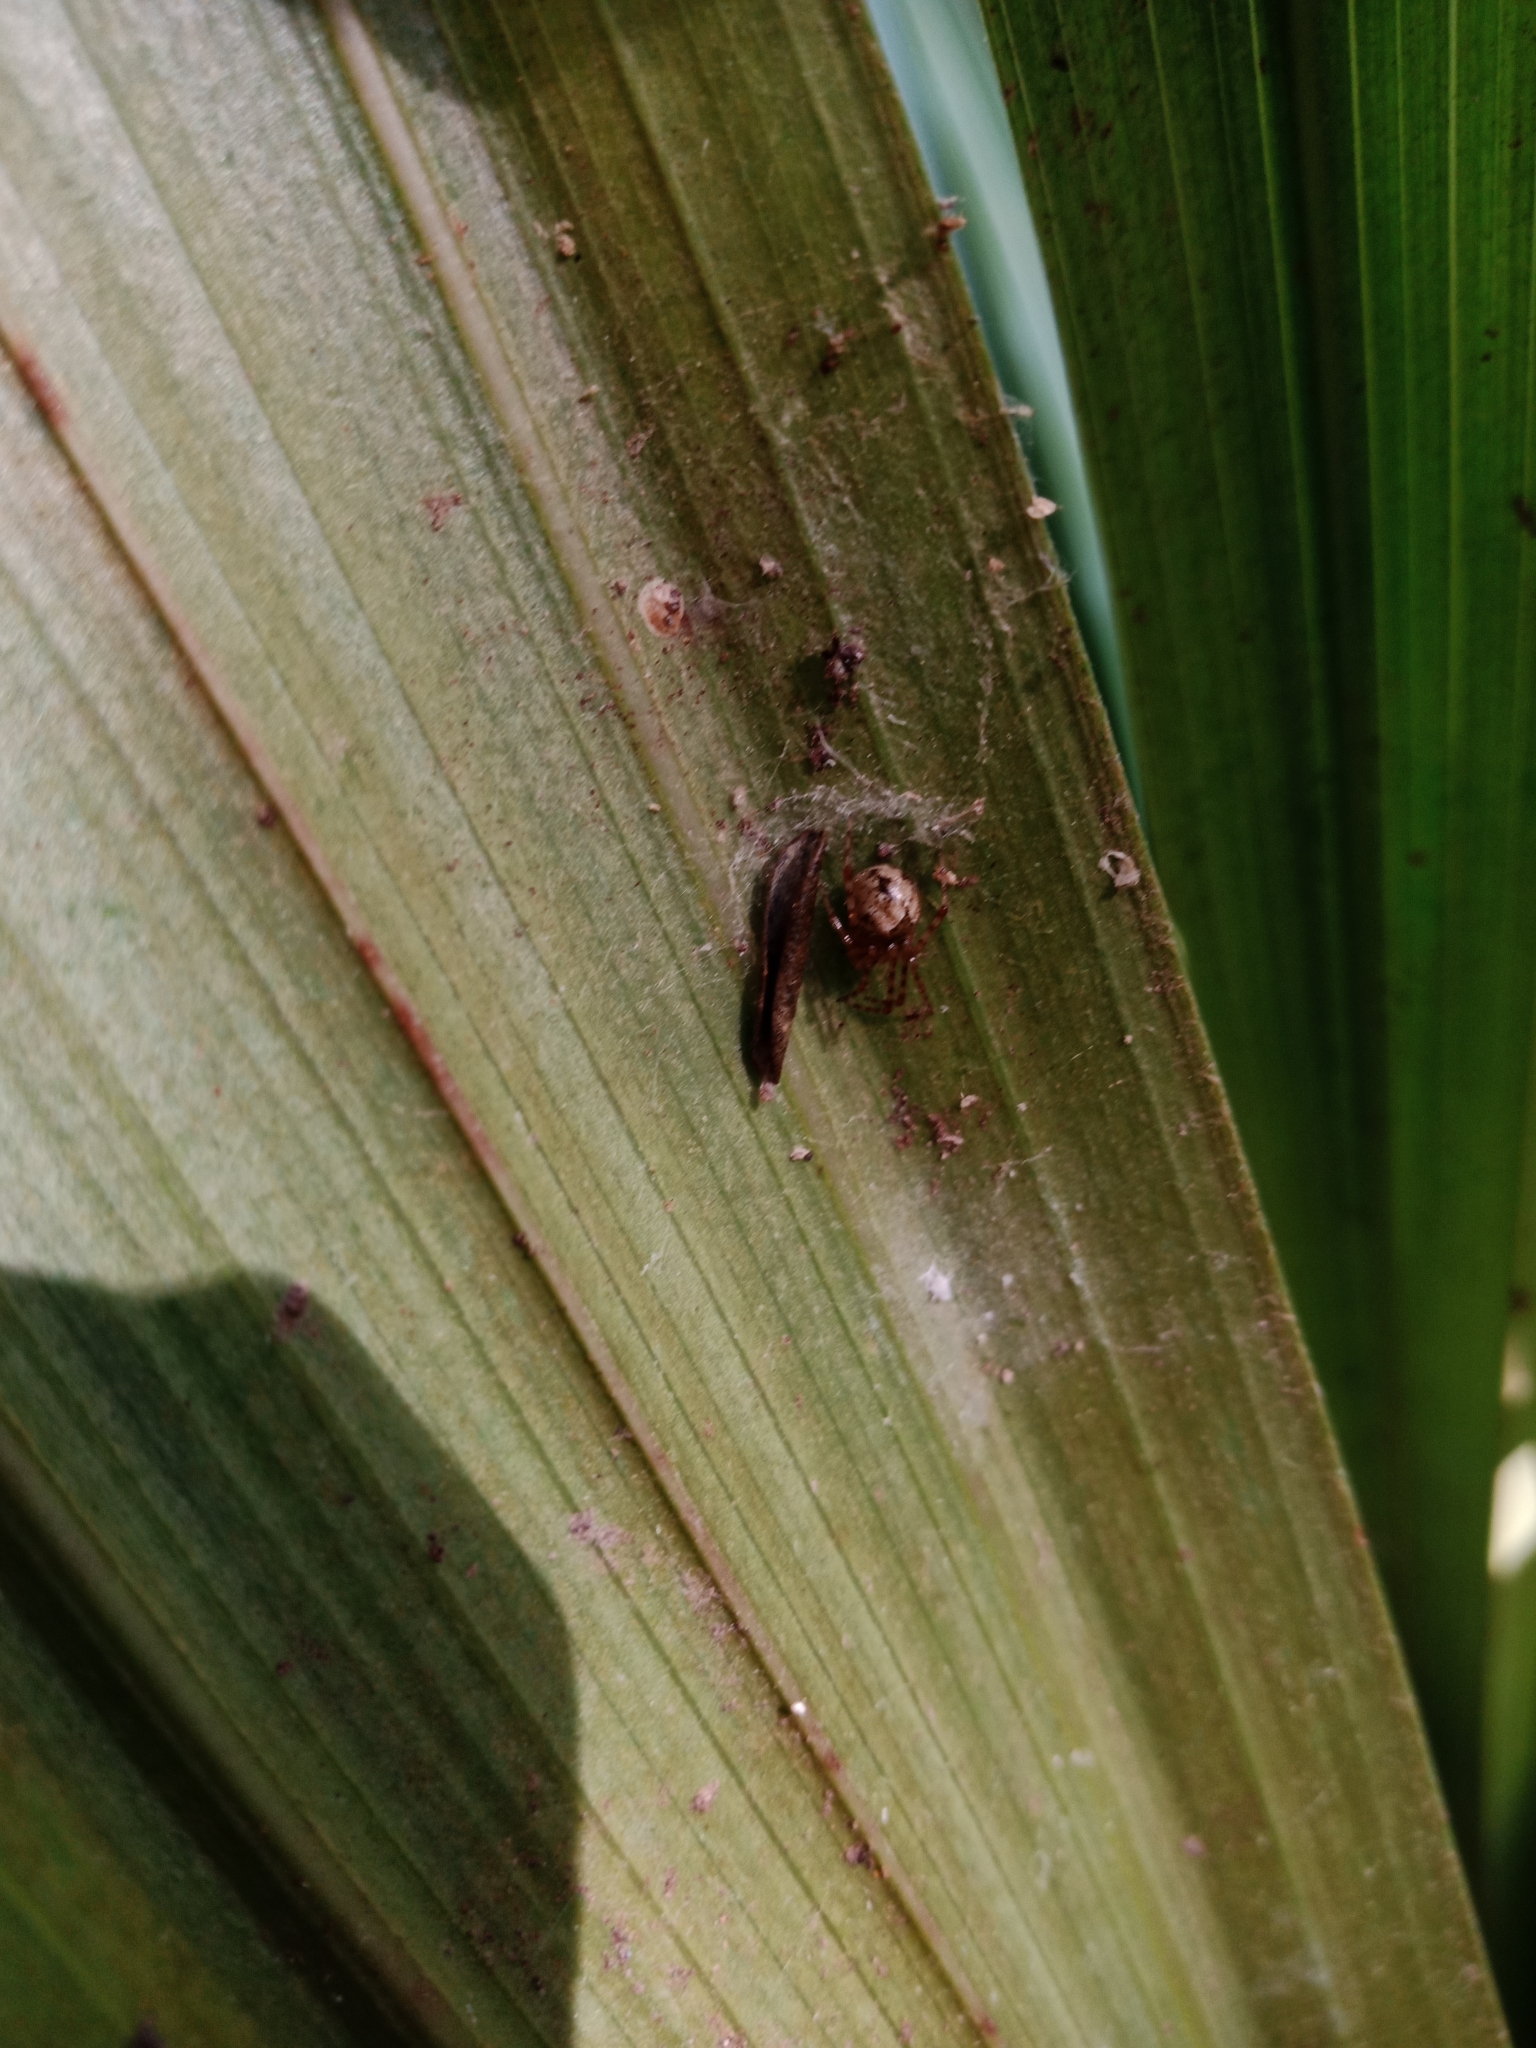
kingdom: Animalia
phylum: Arthropoda
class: Arachnida
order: Araneae
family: Theridiidae
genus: Cryptachaea
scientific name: Cryptachaea veruculata
